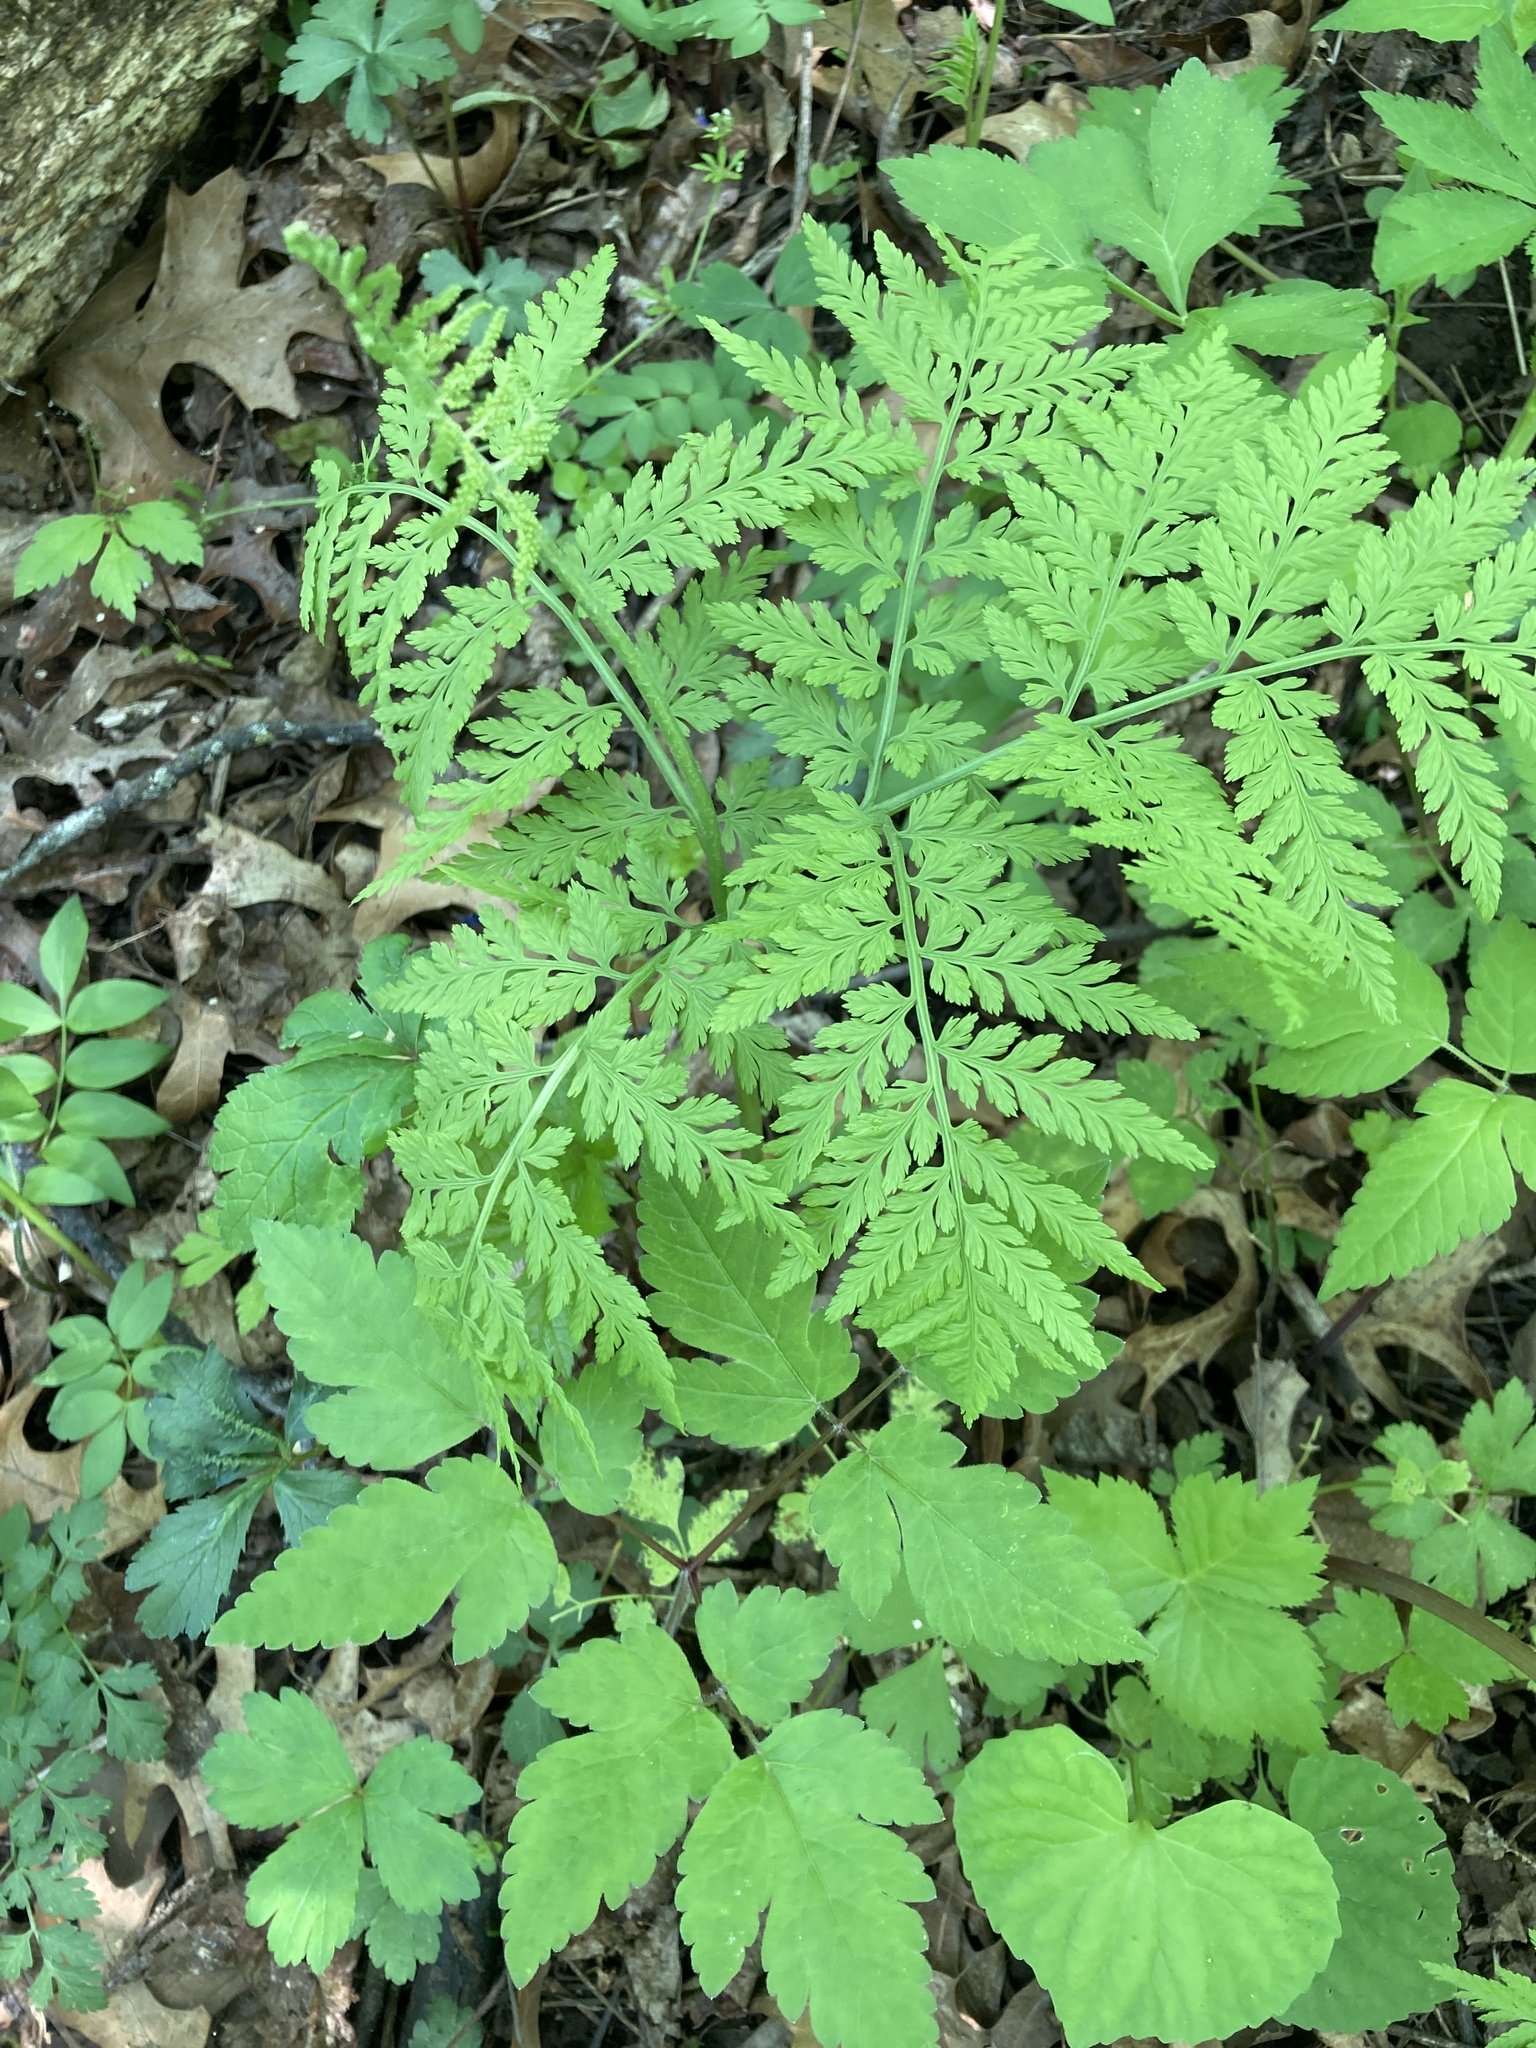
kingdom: Plantae
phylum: Tracheophyta
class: Polypodiopsida
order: Ophioglossales
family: Ophioglossaceae
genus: Botrypus
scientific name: Botrypus virginianus
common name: Common grapefern
